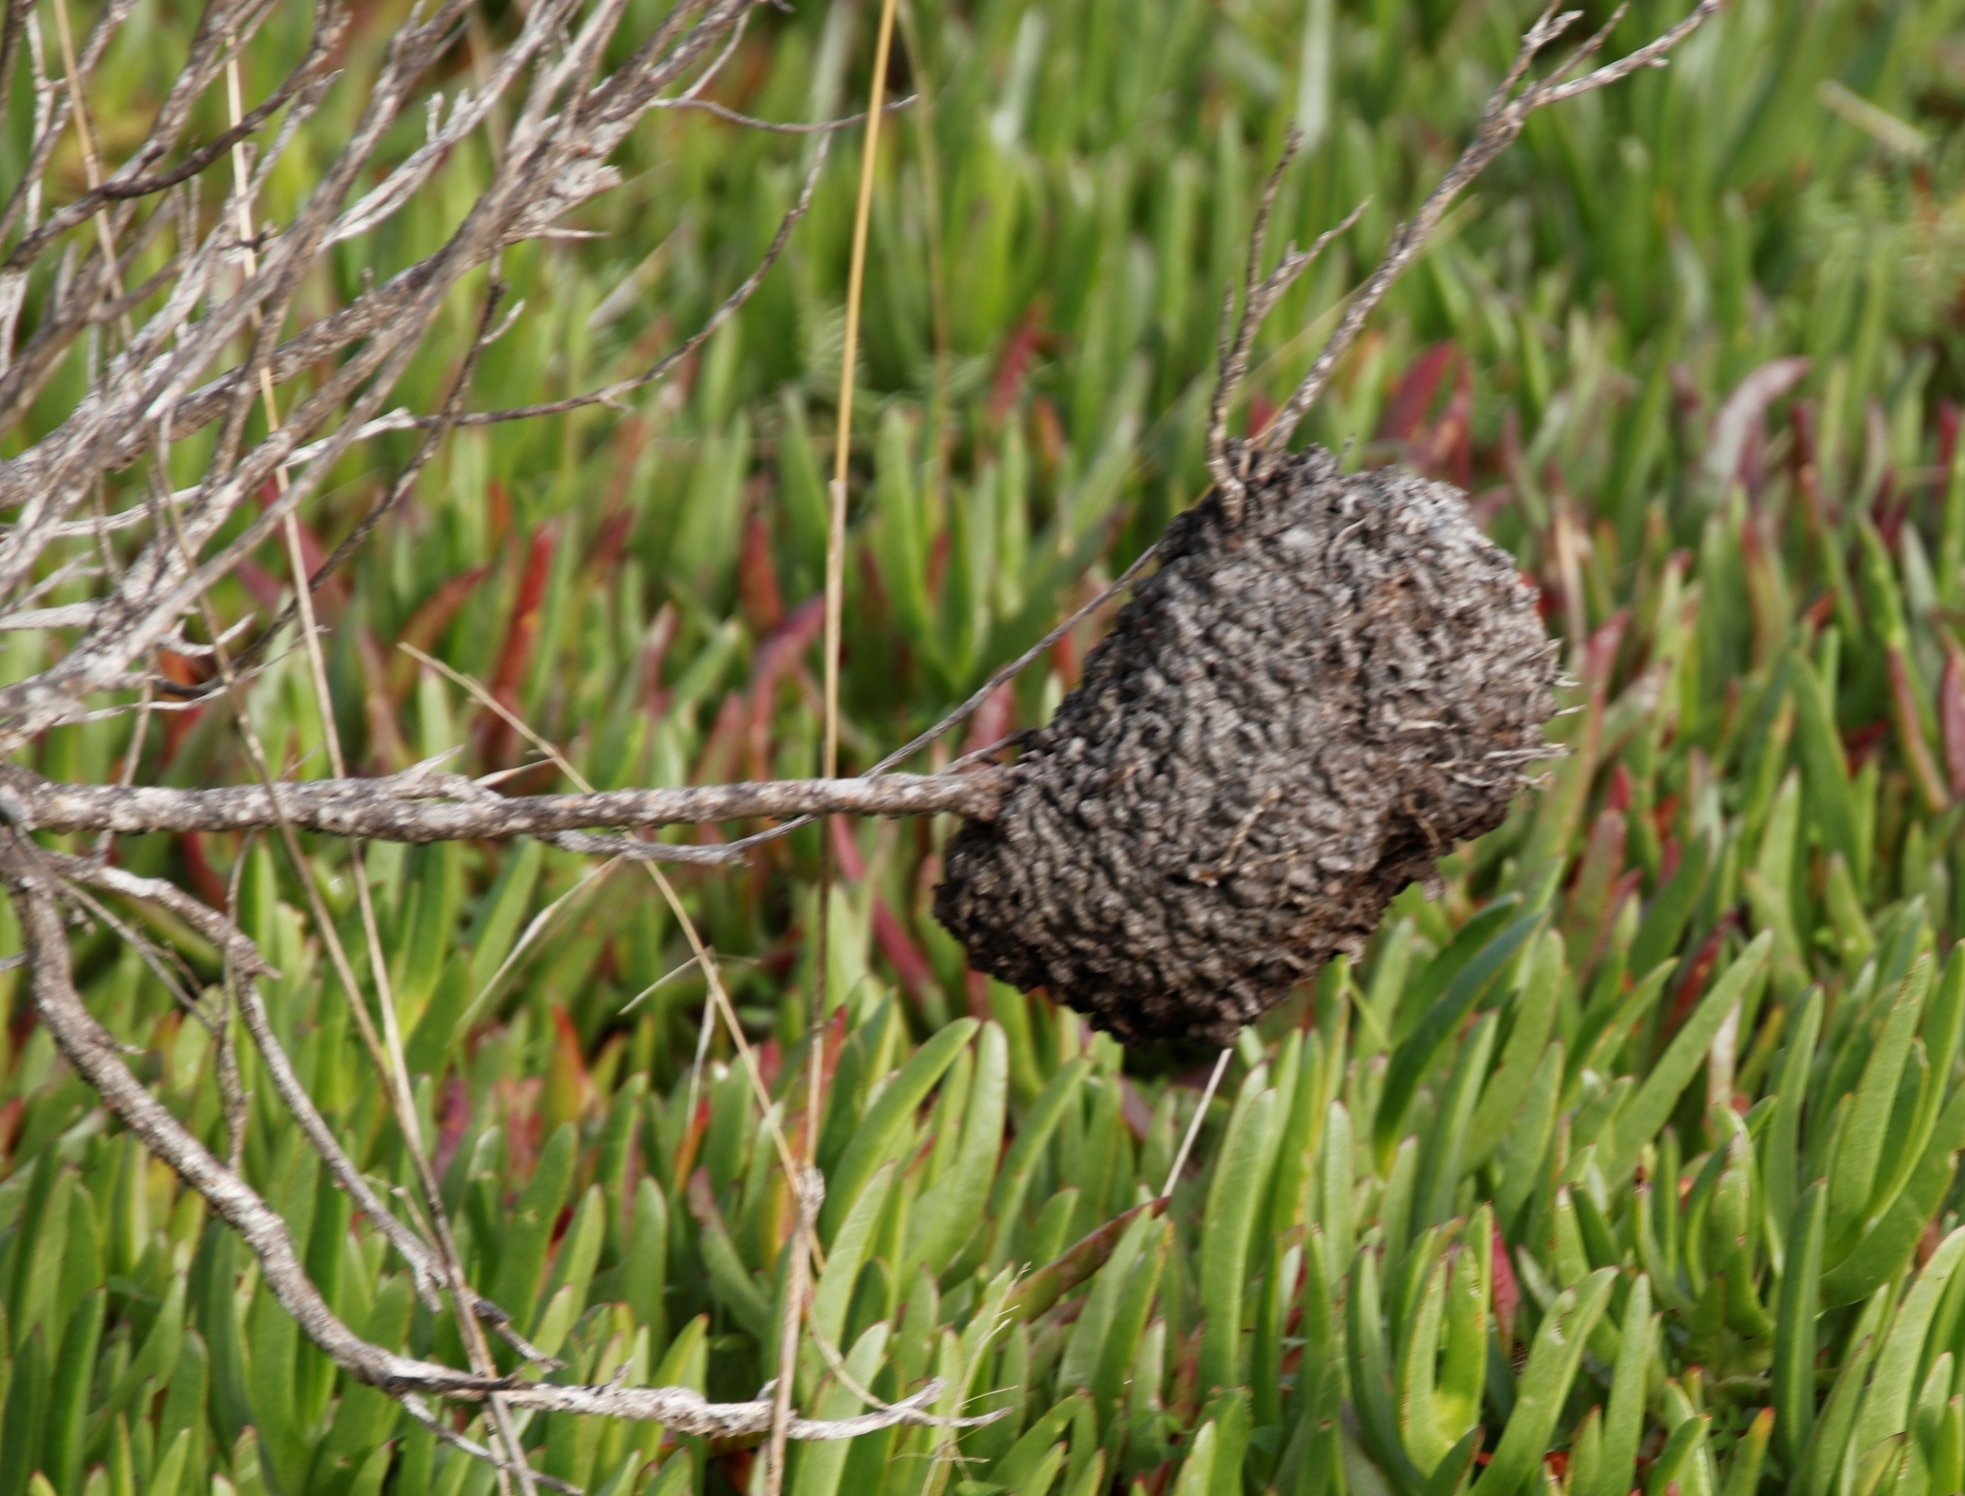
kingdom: Animalia
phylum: Arthropoda
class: Insecta
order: Hymenoptera
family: Formicidae
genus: Crematogaster
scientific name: Crematogaster peringueyi
